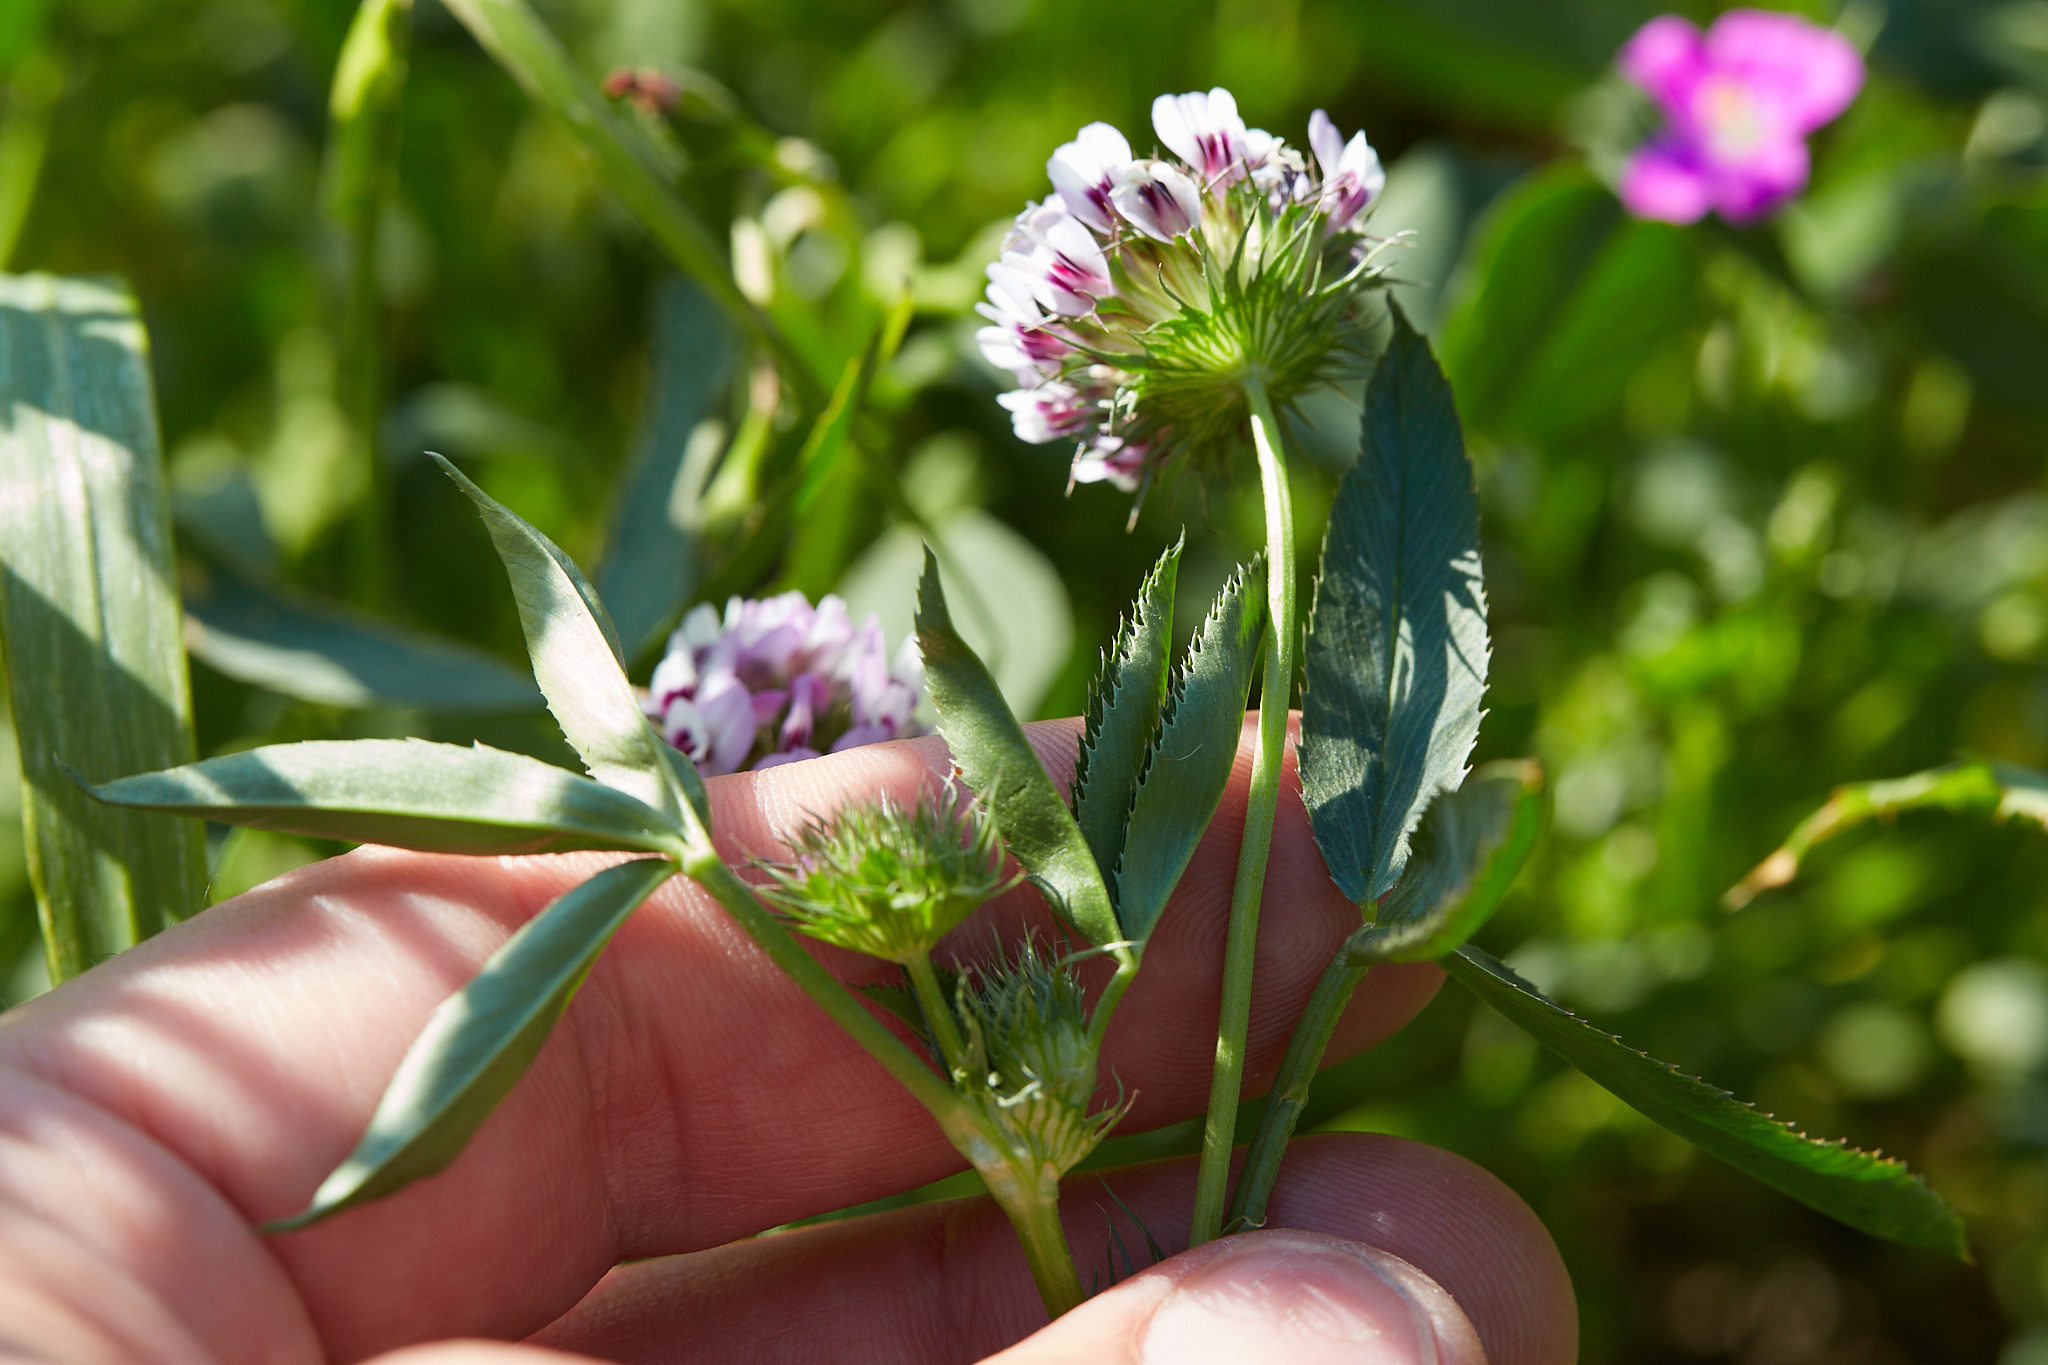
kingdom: Plantae
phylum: Tracheophyta
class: Magnoliopsida
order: Fabales
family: Fabaceae
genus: Trifolium
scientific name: Trifolium willdenovii
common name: Tomcat clover
